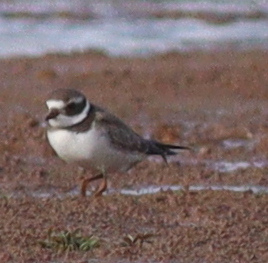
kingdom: Animalia
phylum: Chordata
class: Aves
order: Charadriiformes
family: Charadriidae
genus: Charadrius
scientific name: Charadrius hiaticula
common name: Common ringed plover
